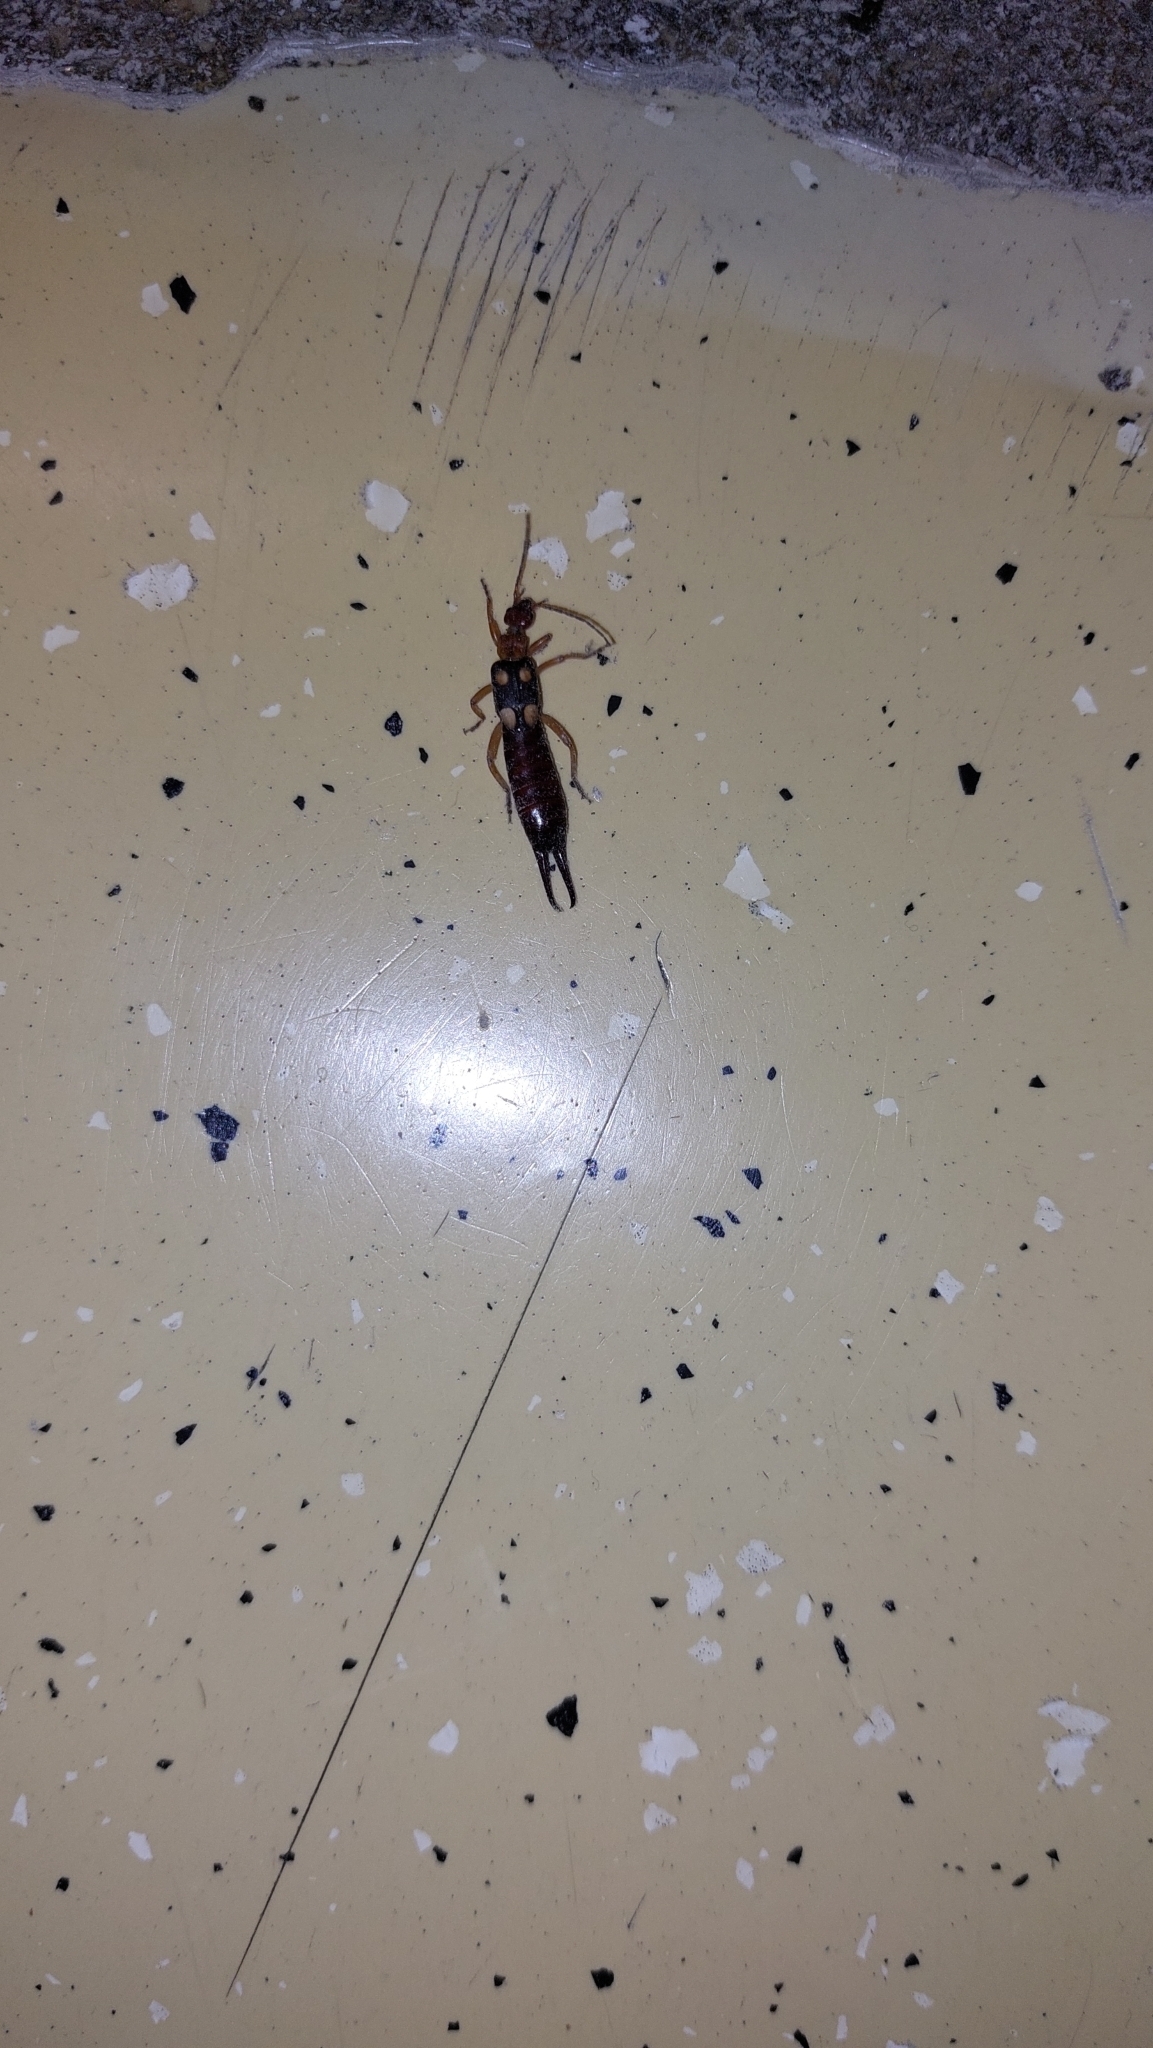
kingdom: Animalia
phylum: Arthropoda
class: Insecta
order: Dermaptera
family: Forficulidae
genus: Forficula
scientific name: Forficula smyrnensis
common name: Smyrna earwig
